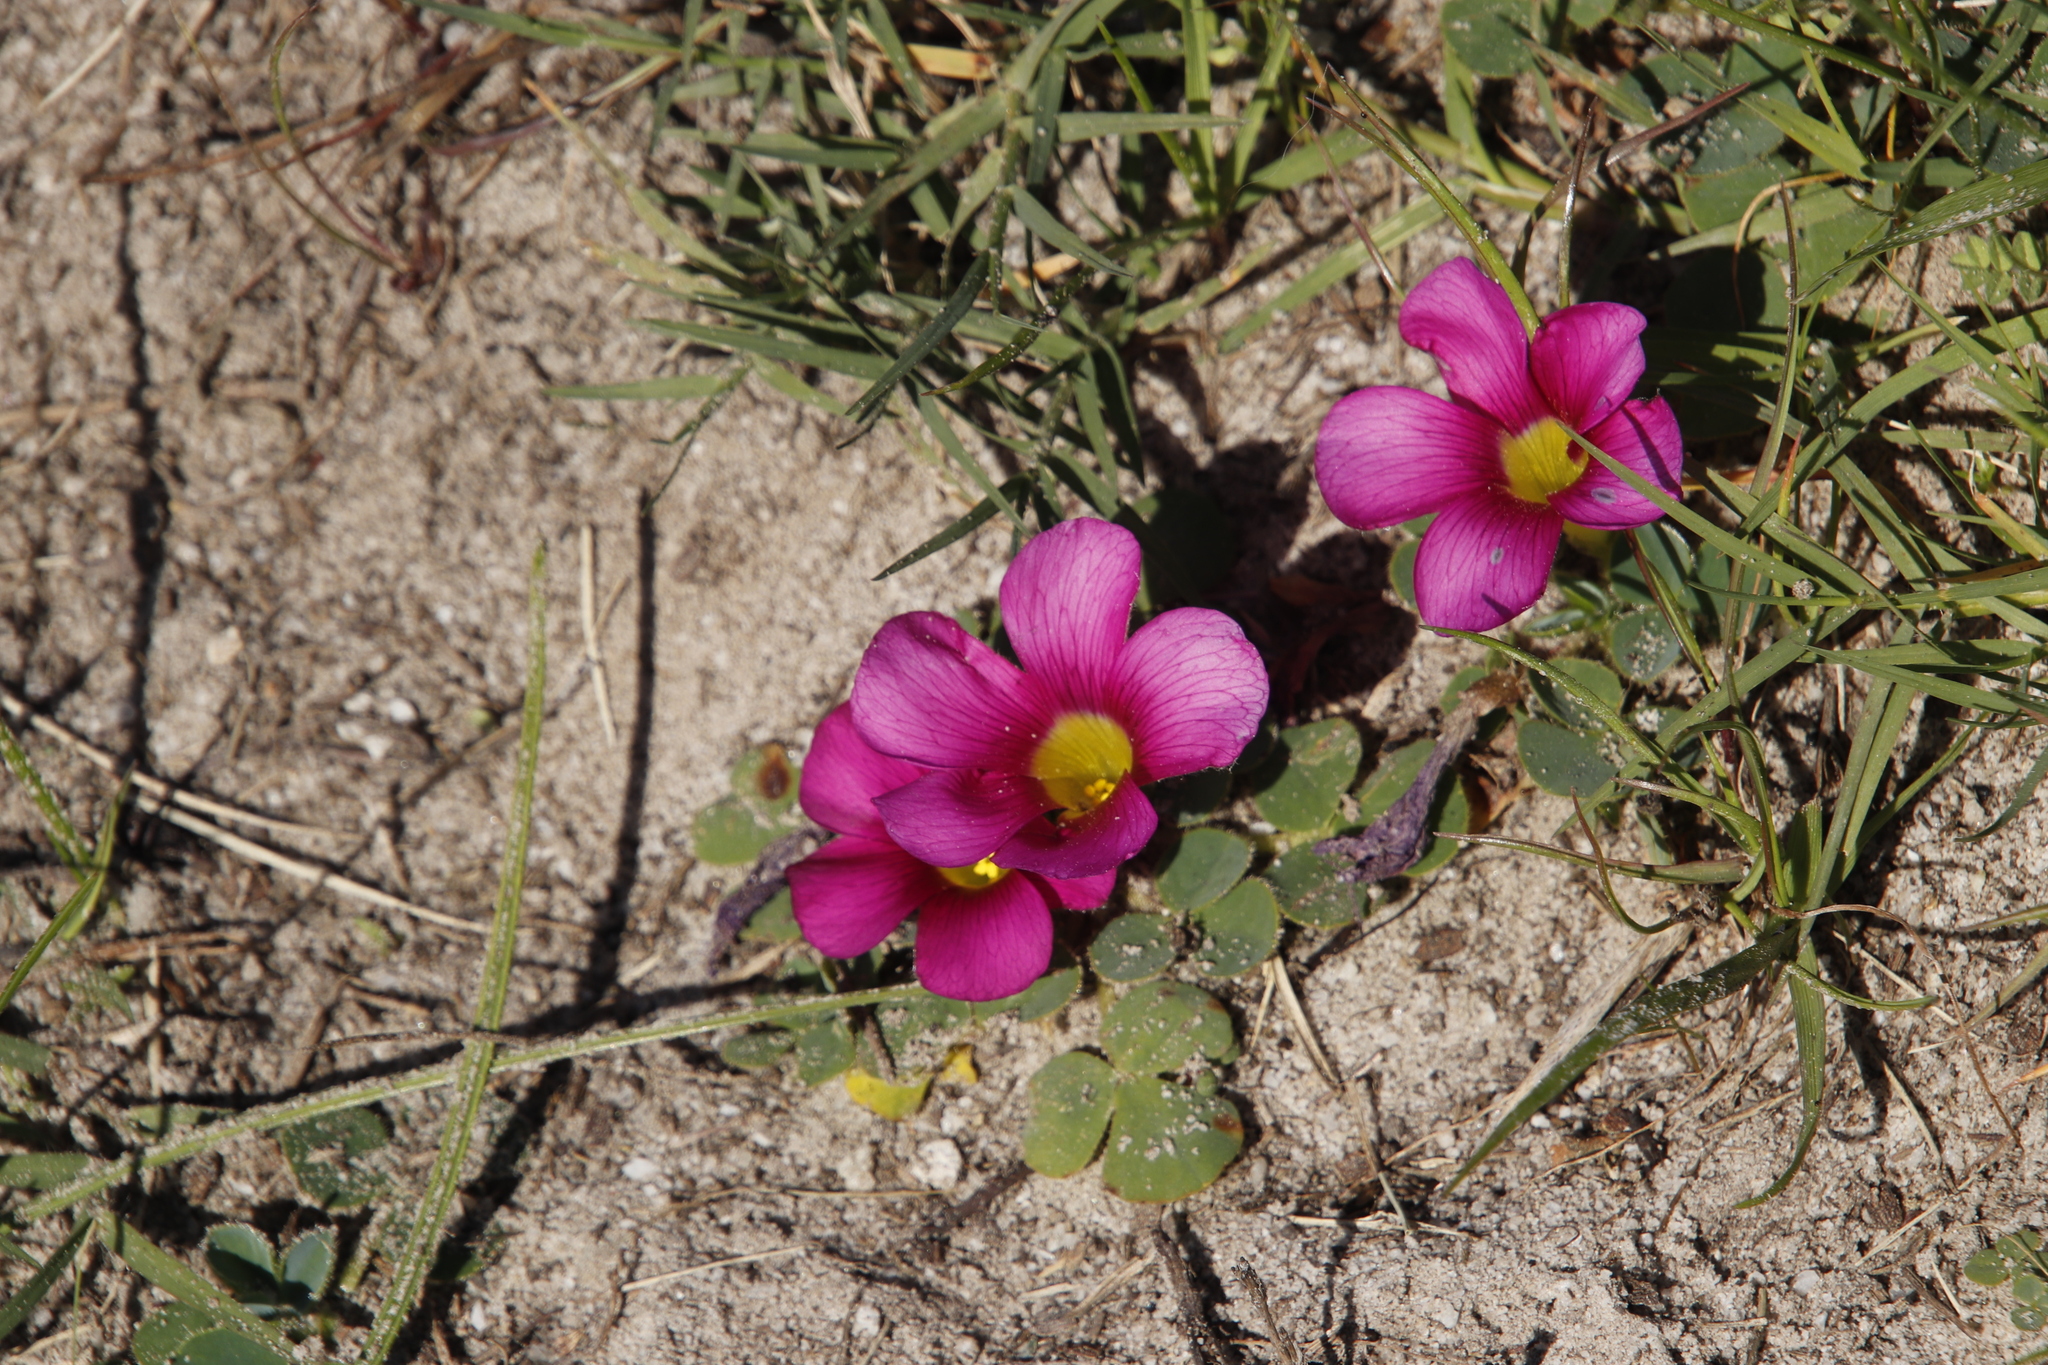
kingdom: Plantae
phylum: Tracheophyta
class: Magnoliopsida
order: Oxalidales
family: Oxalidaceae
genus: Oxalis
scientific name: Oxalis purpurea
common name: Purple woodsorrel
